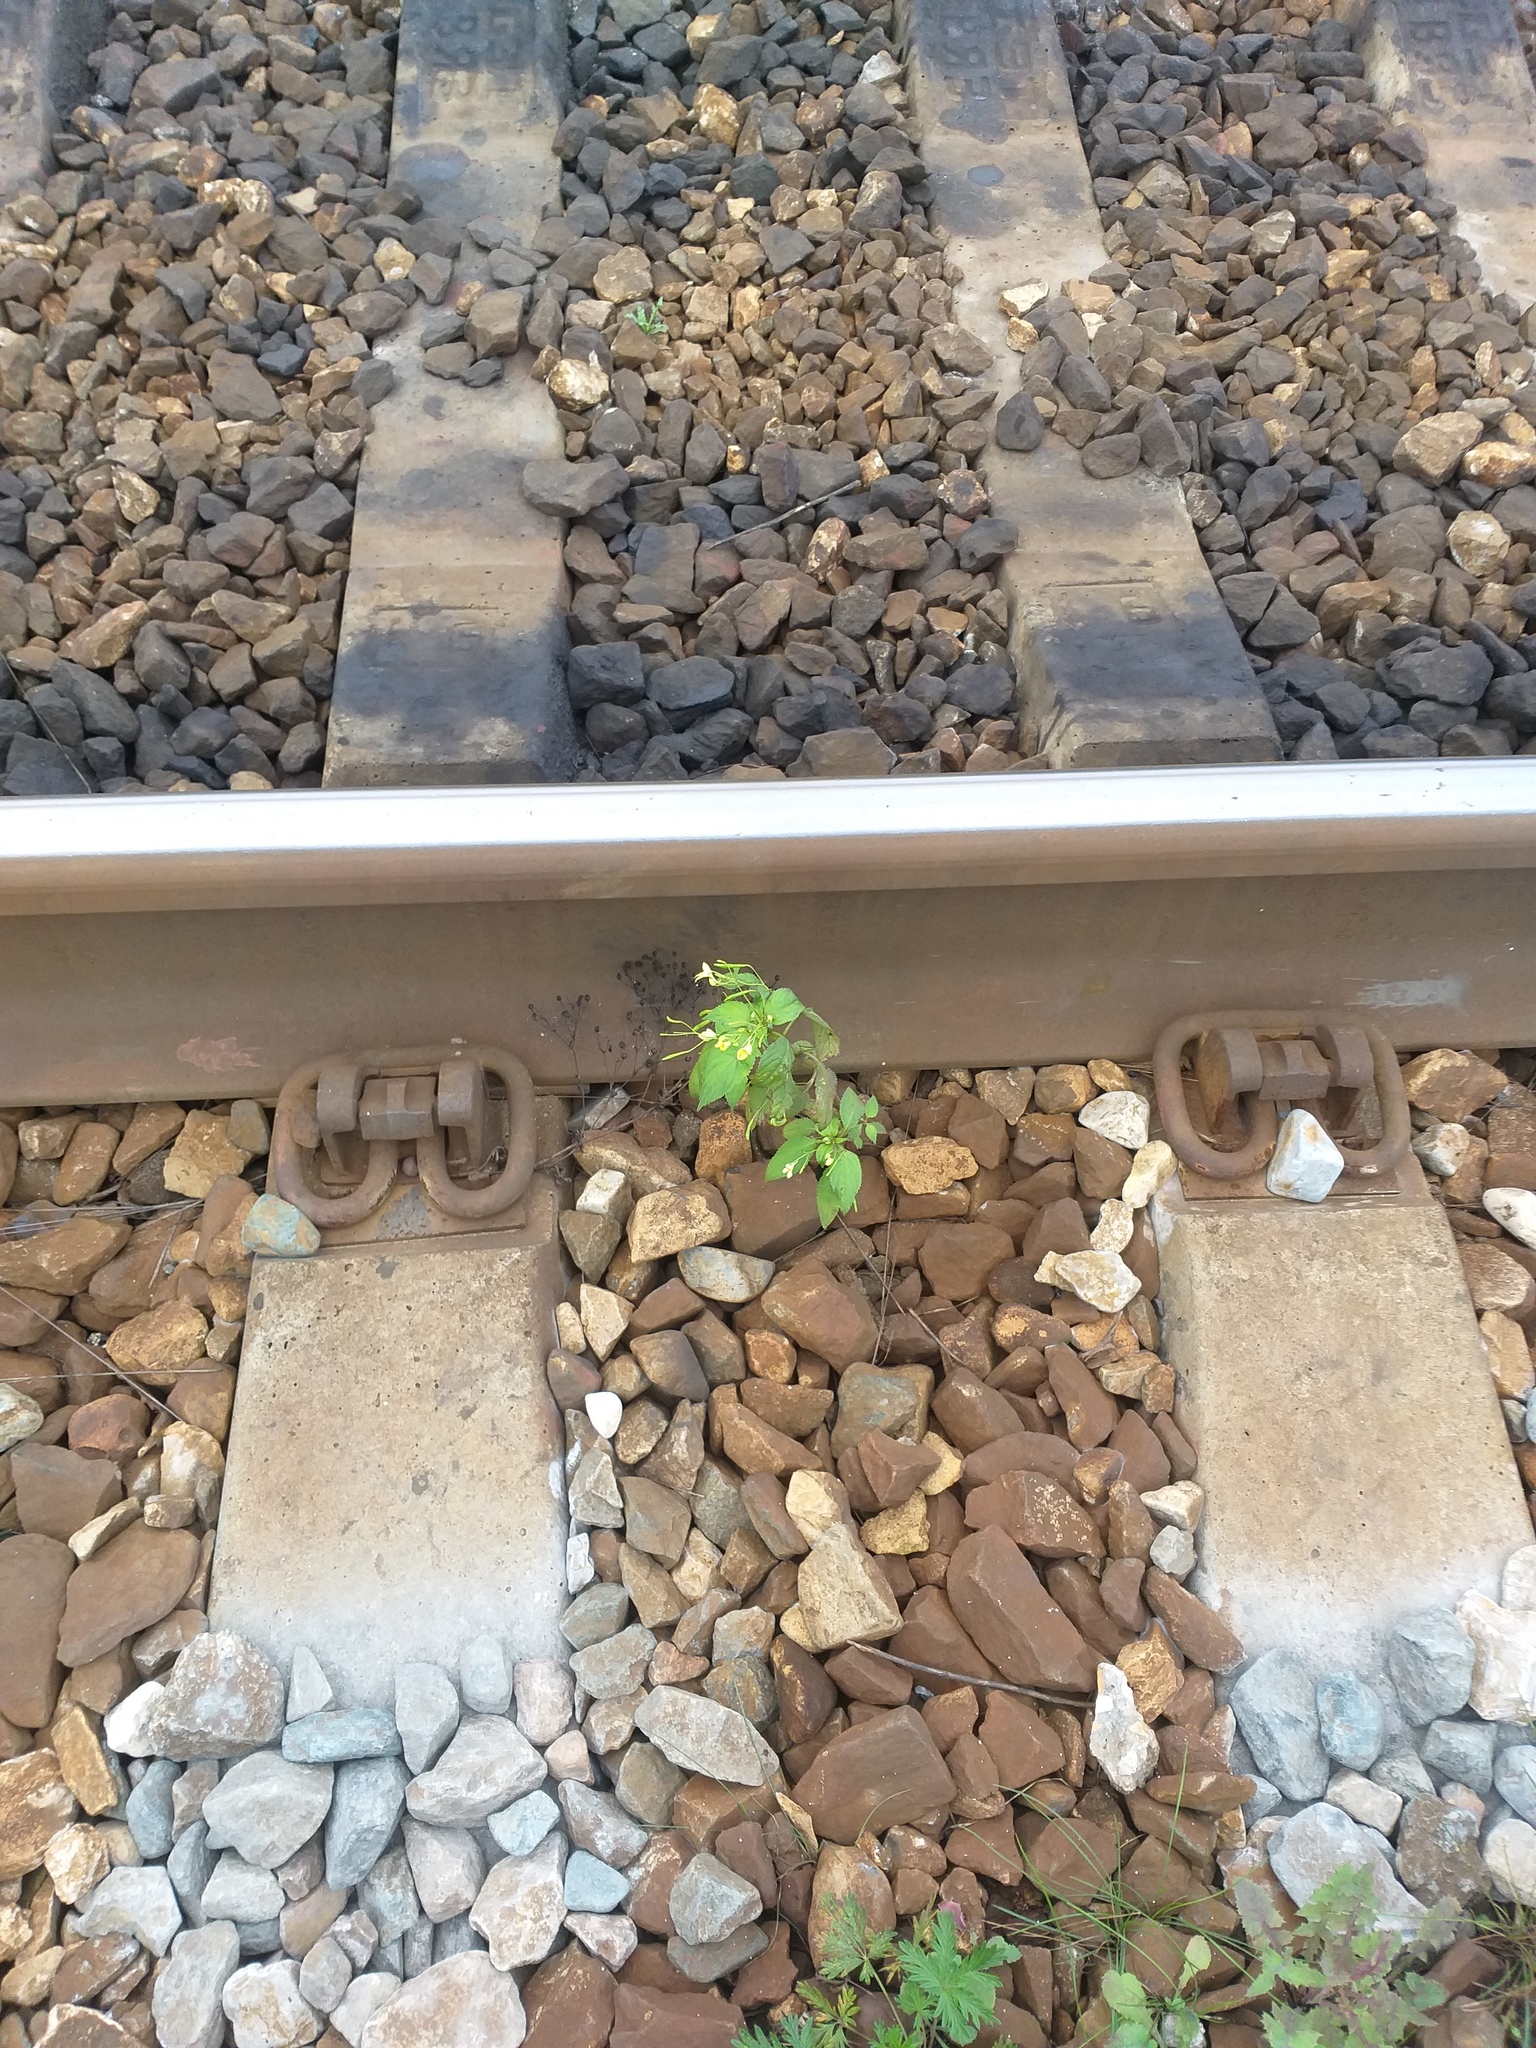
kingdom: Plantae
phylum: Tracheophyta
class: Magnoliopsida
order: Ericales
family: Balsaminaceae
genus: Impatiens
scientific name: Impatiens parviflora
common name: Small balsam
